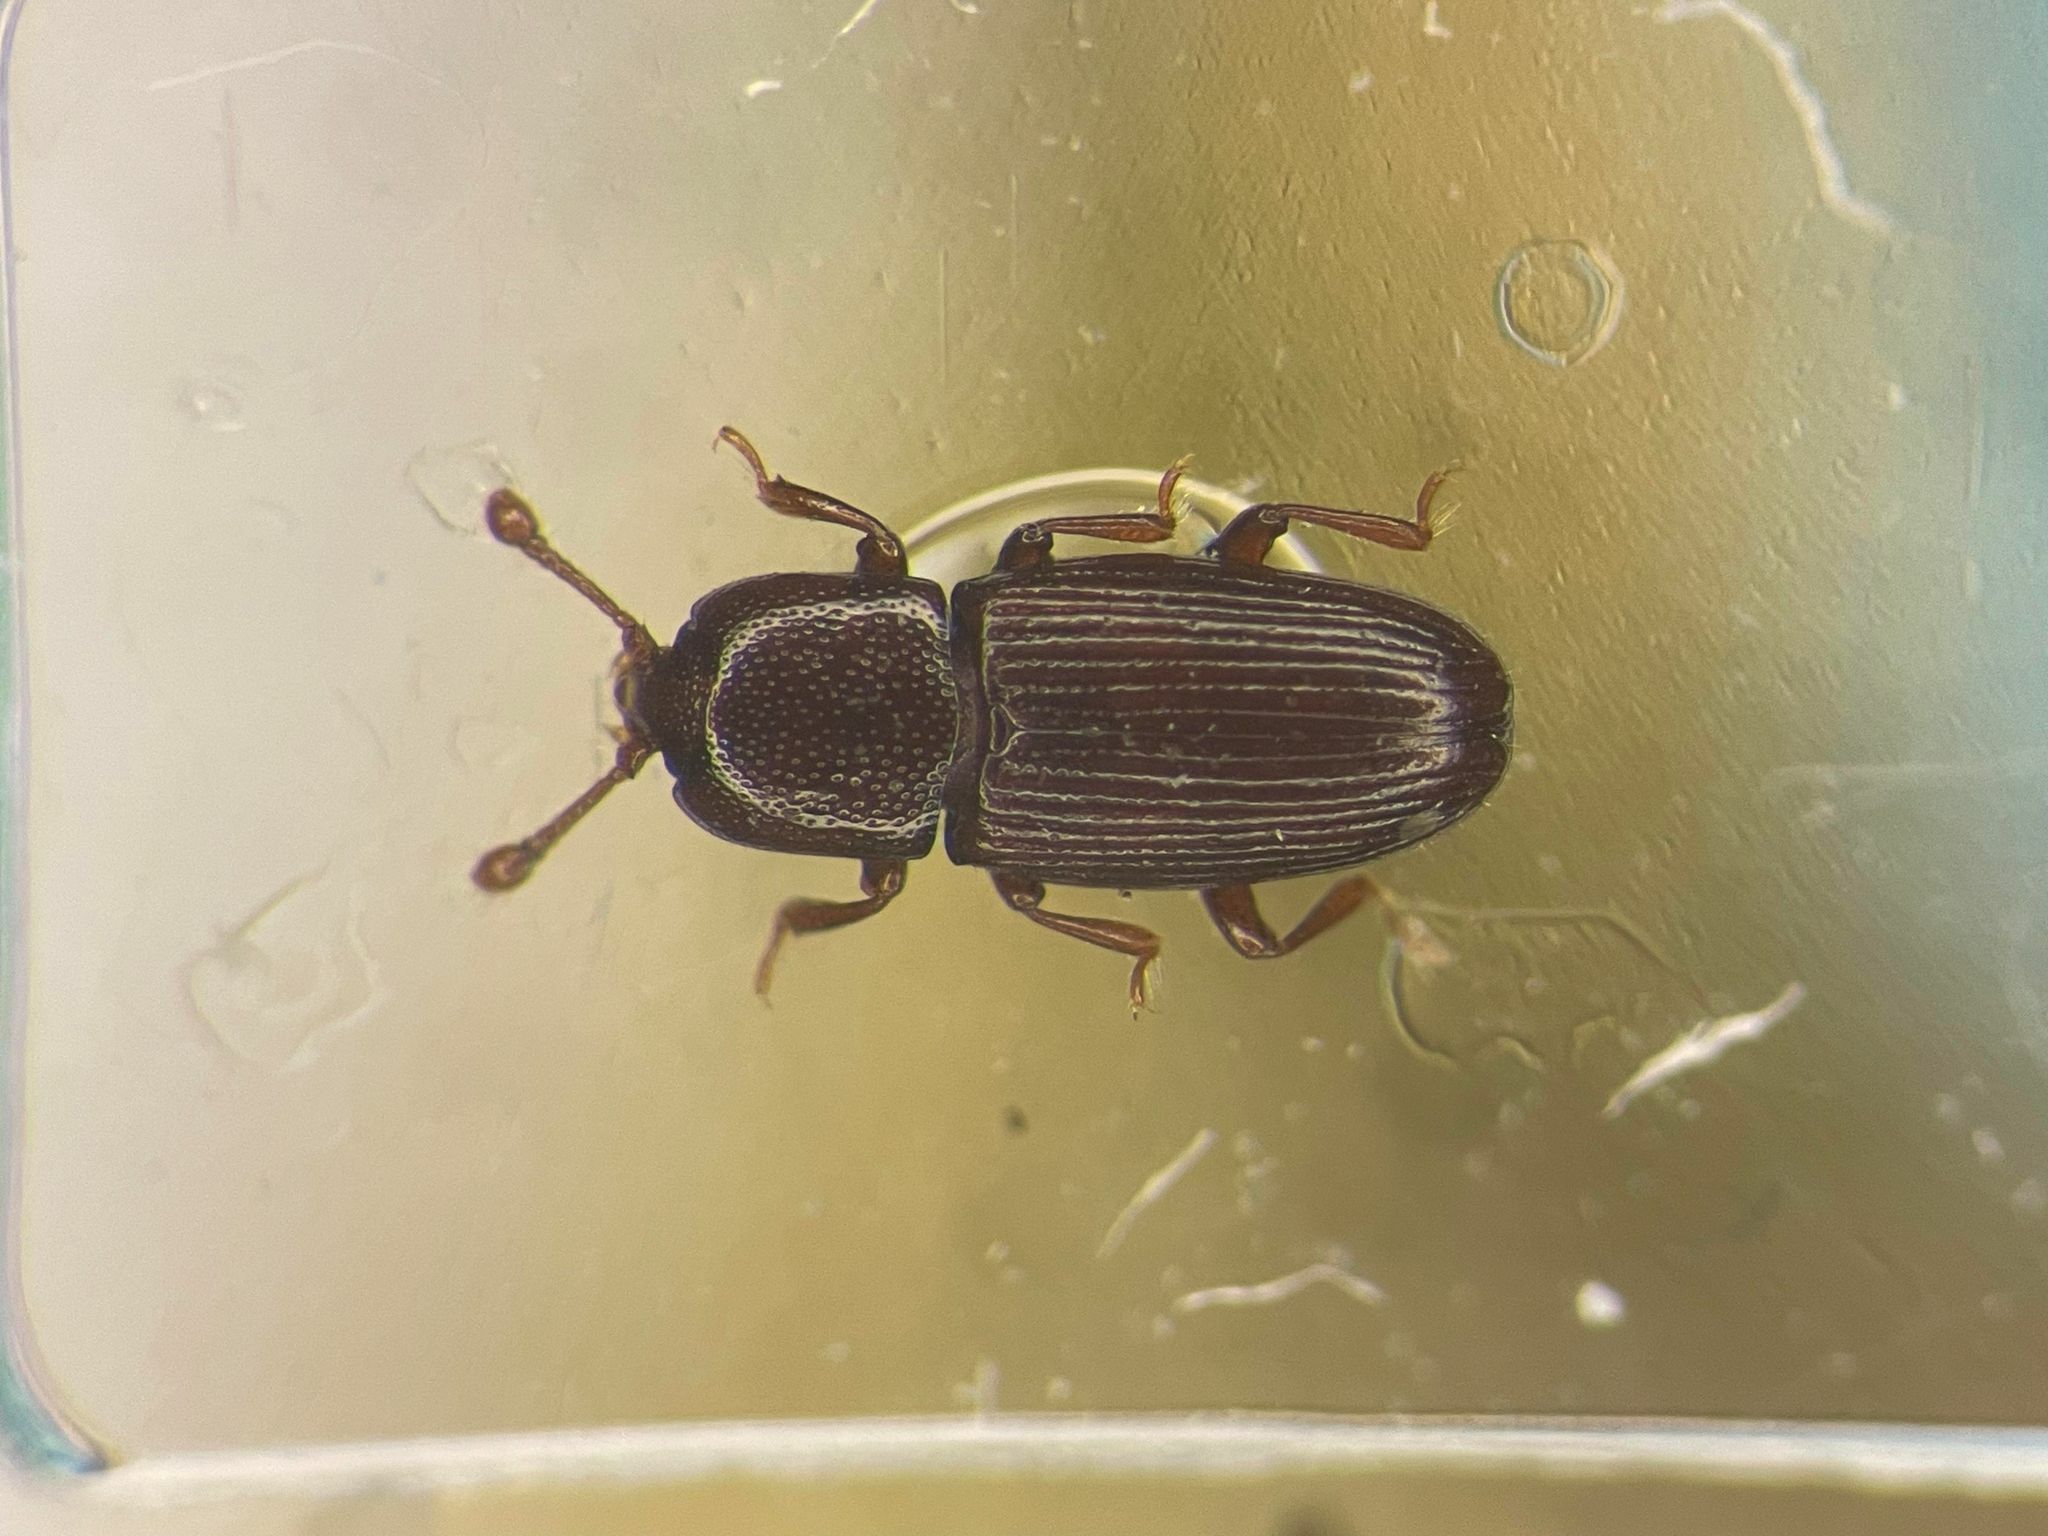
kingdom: Animalia
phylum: Arthropoda
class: Insecta
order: Coleoptera
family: Cerylonidae
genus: Cerylon
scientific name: Cerylon unicolor
